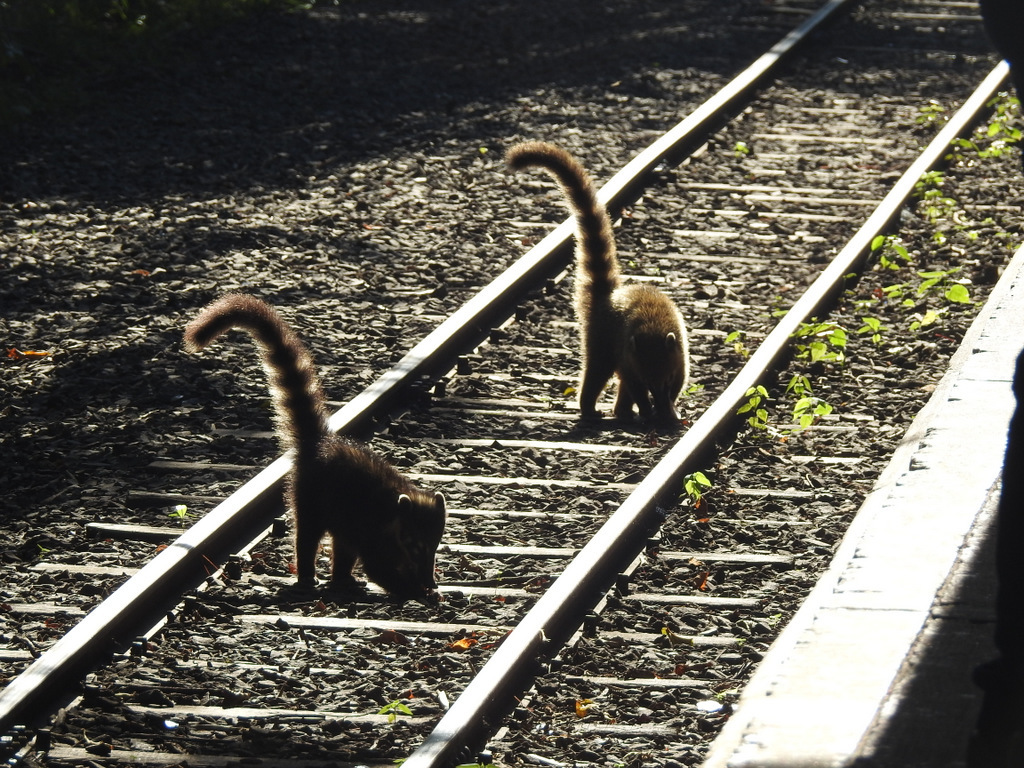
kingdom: Animalia
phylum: Chordata
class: Mammalia
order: Carnivora
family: Procyonidae
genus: Nasua
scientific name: Nasua nasua
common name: South american coati
